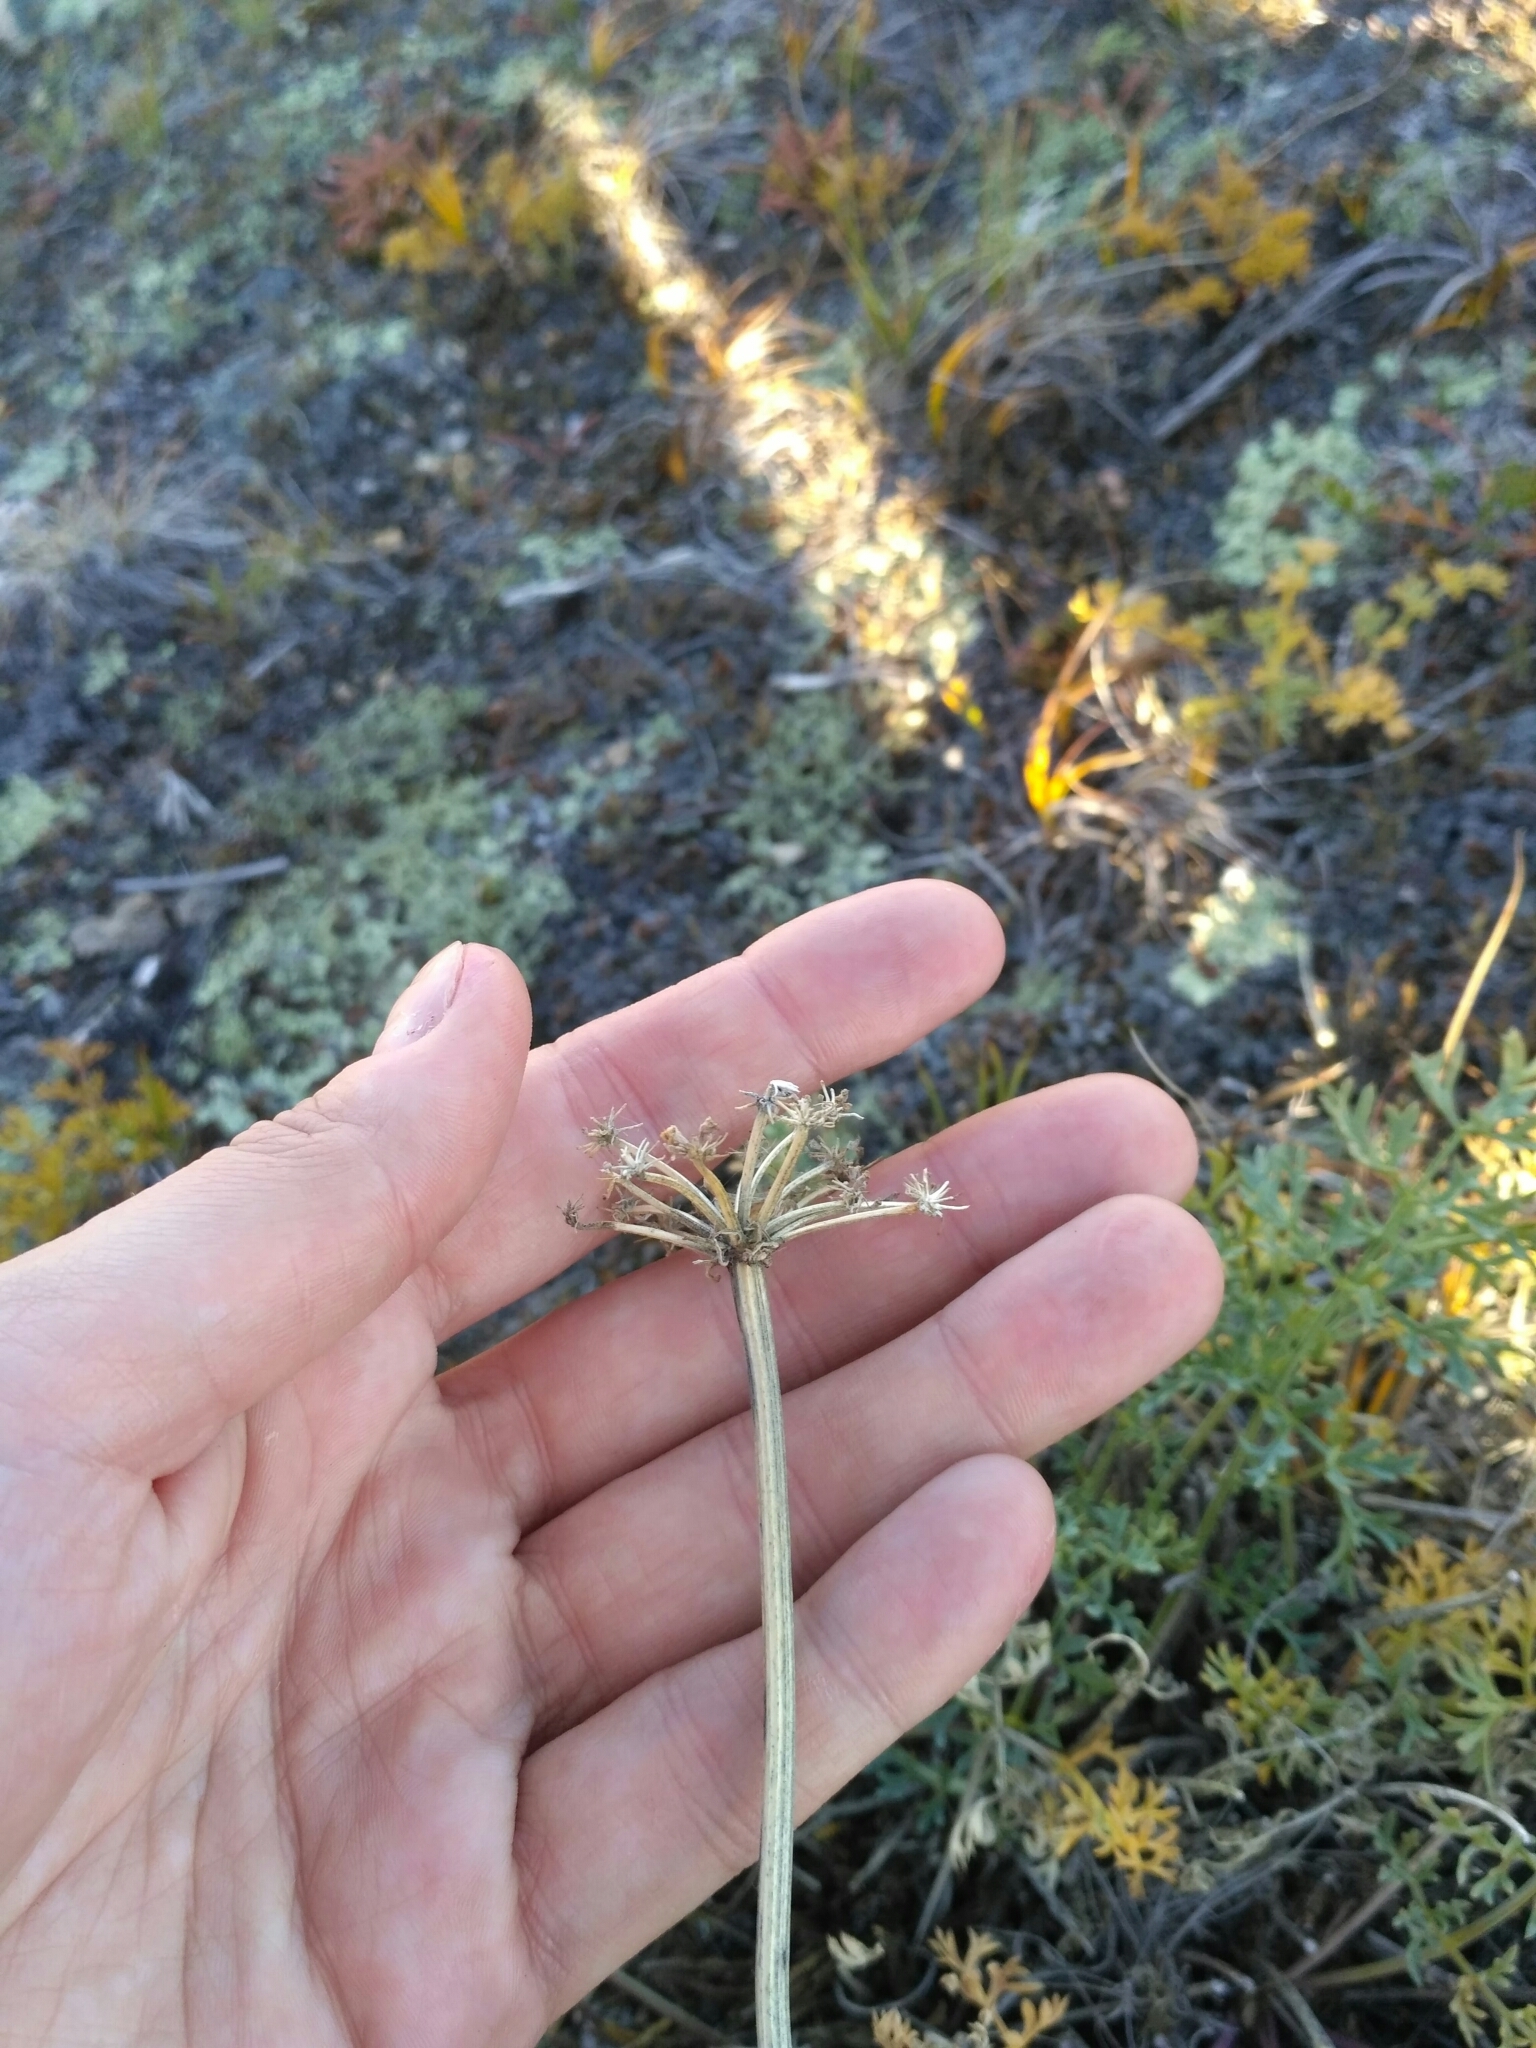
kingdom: Plantae
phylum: Tracheophyta
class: Magnoliopsida
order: Apiales
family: Apiaceae
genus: Phlojodicarpus
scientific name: Phlojodicarpus sibiricus
